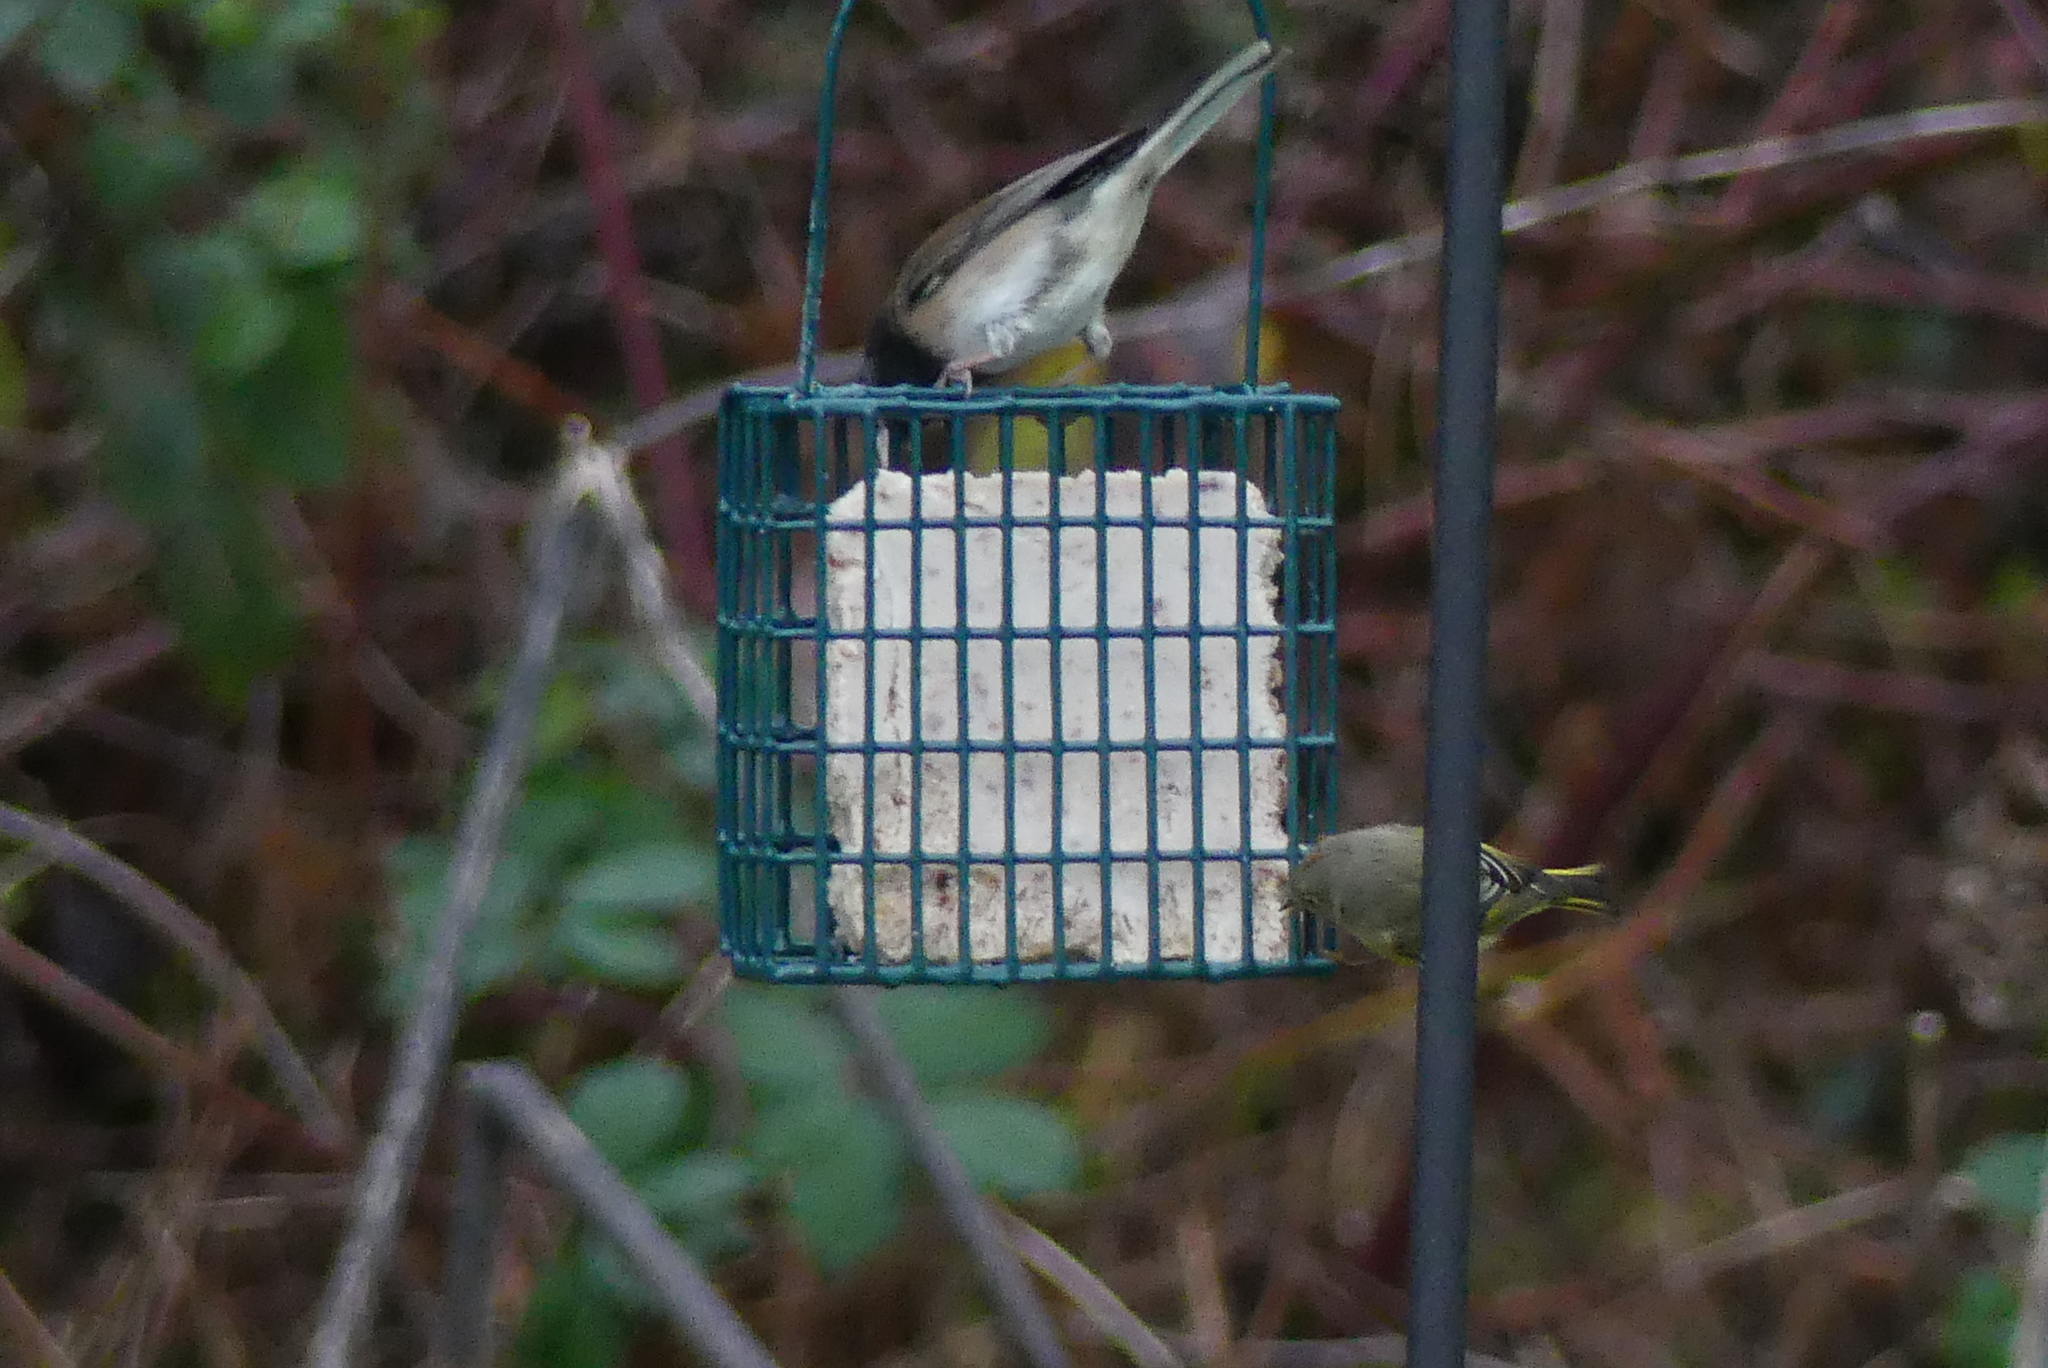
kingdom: Animalia
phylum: Chordata
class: Aves
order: Passeriformes
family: Regulidae
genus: Regulus
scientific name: Regulus calendula
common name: Ruby-crowned kinglet
